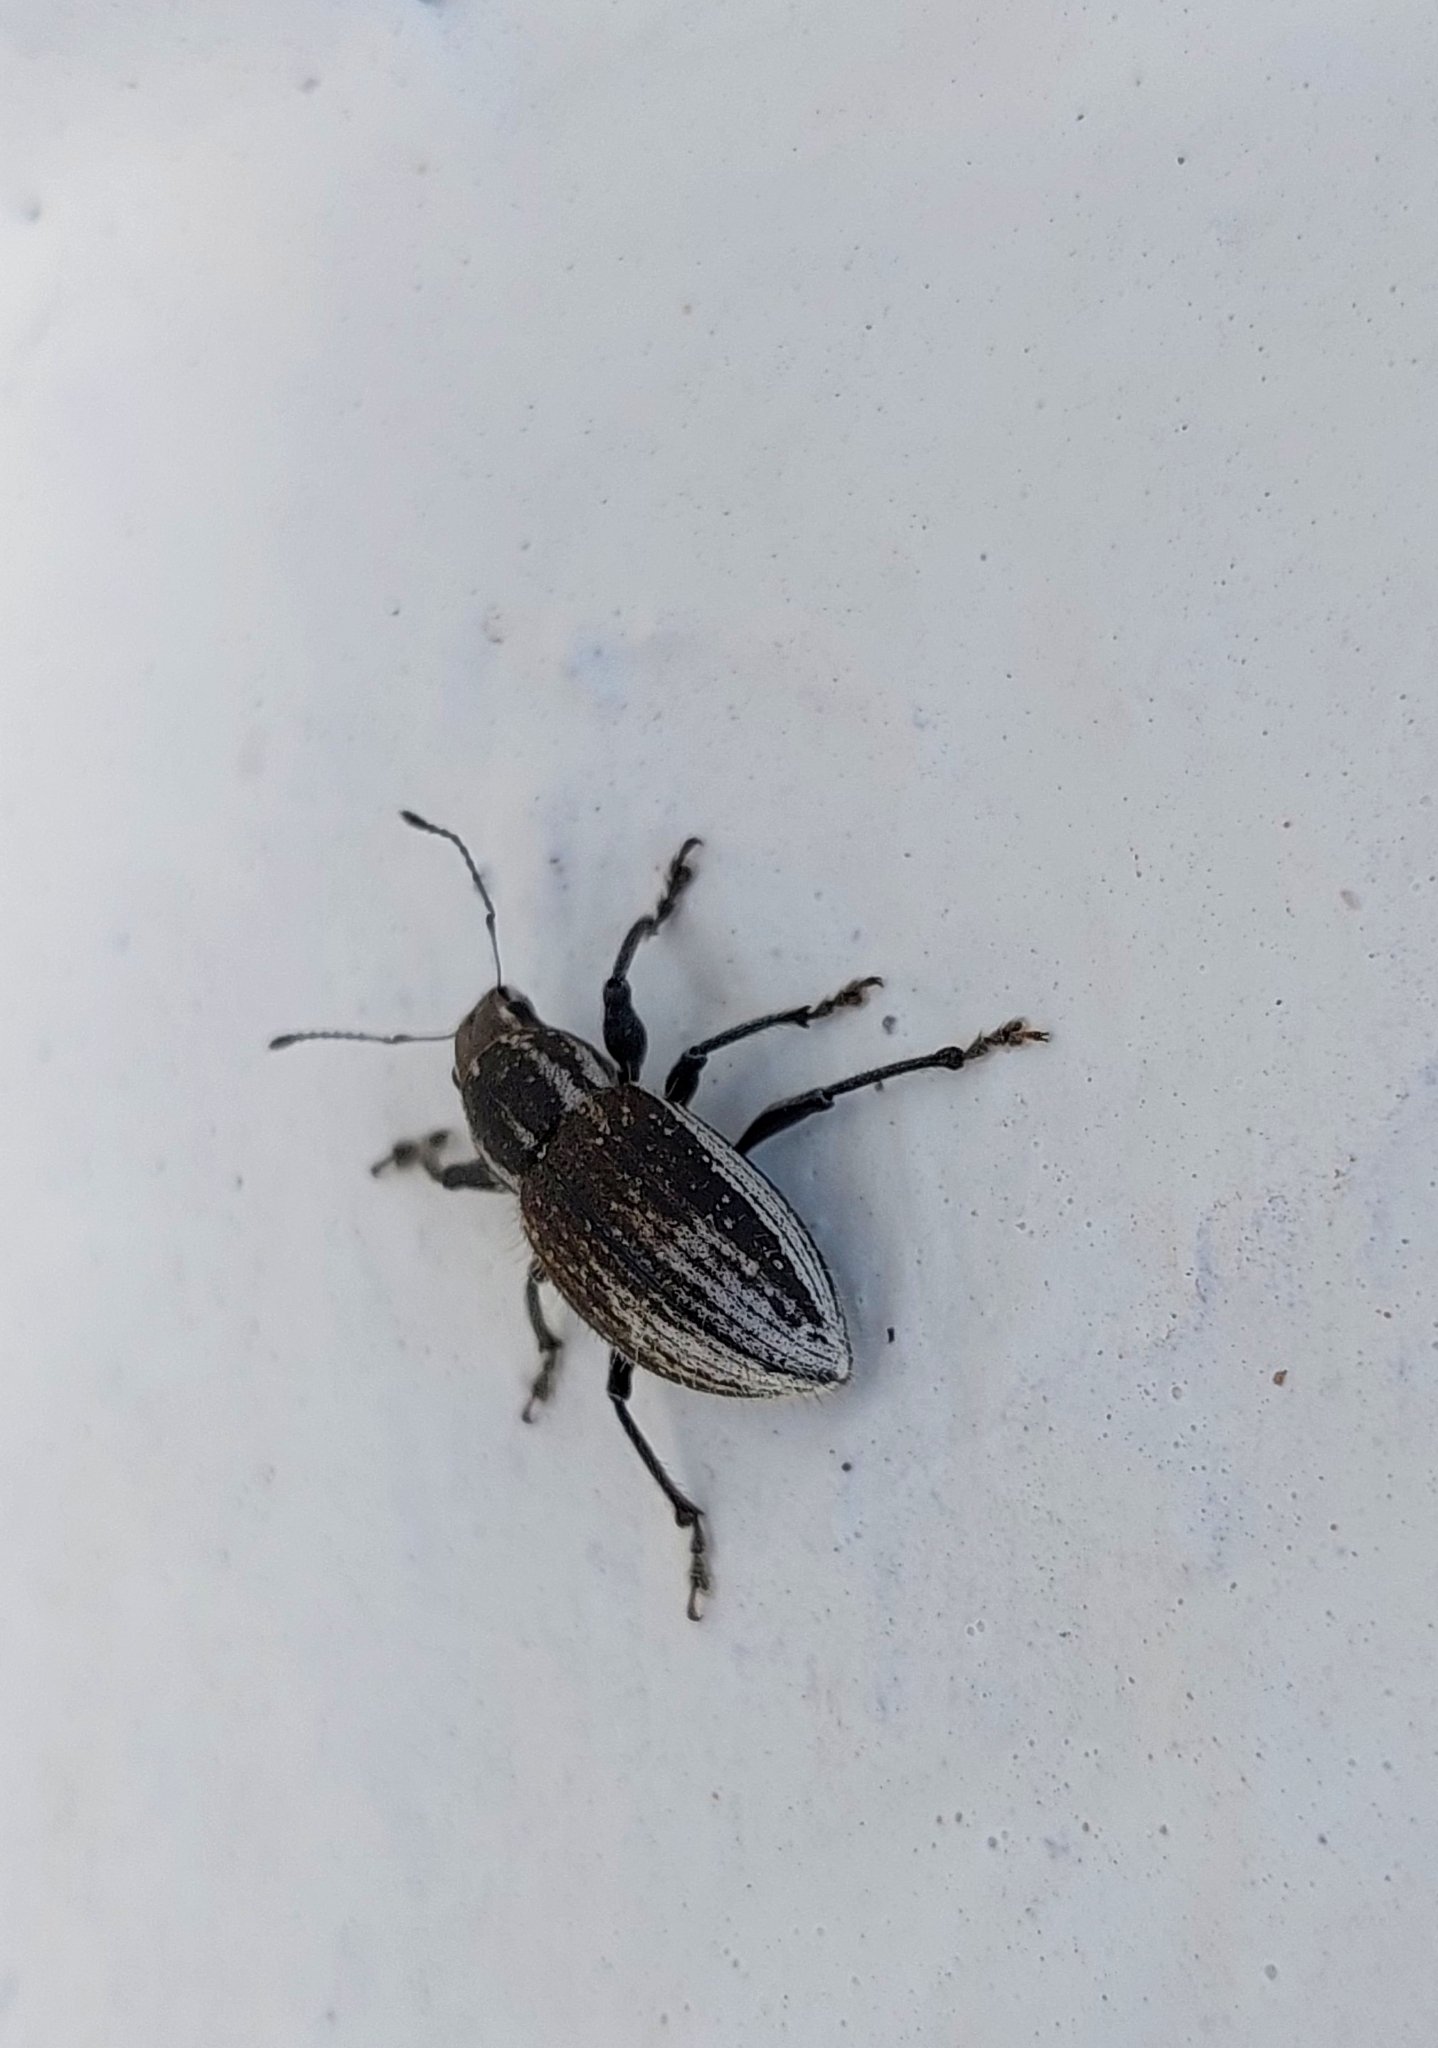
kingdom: Animalia
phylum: Arthropoda
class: Insecta
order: Coleoptera
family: Curculionidae
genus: Naupactus
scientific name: Naupactus leucoloma
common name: Whitefringed beetle
